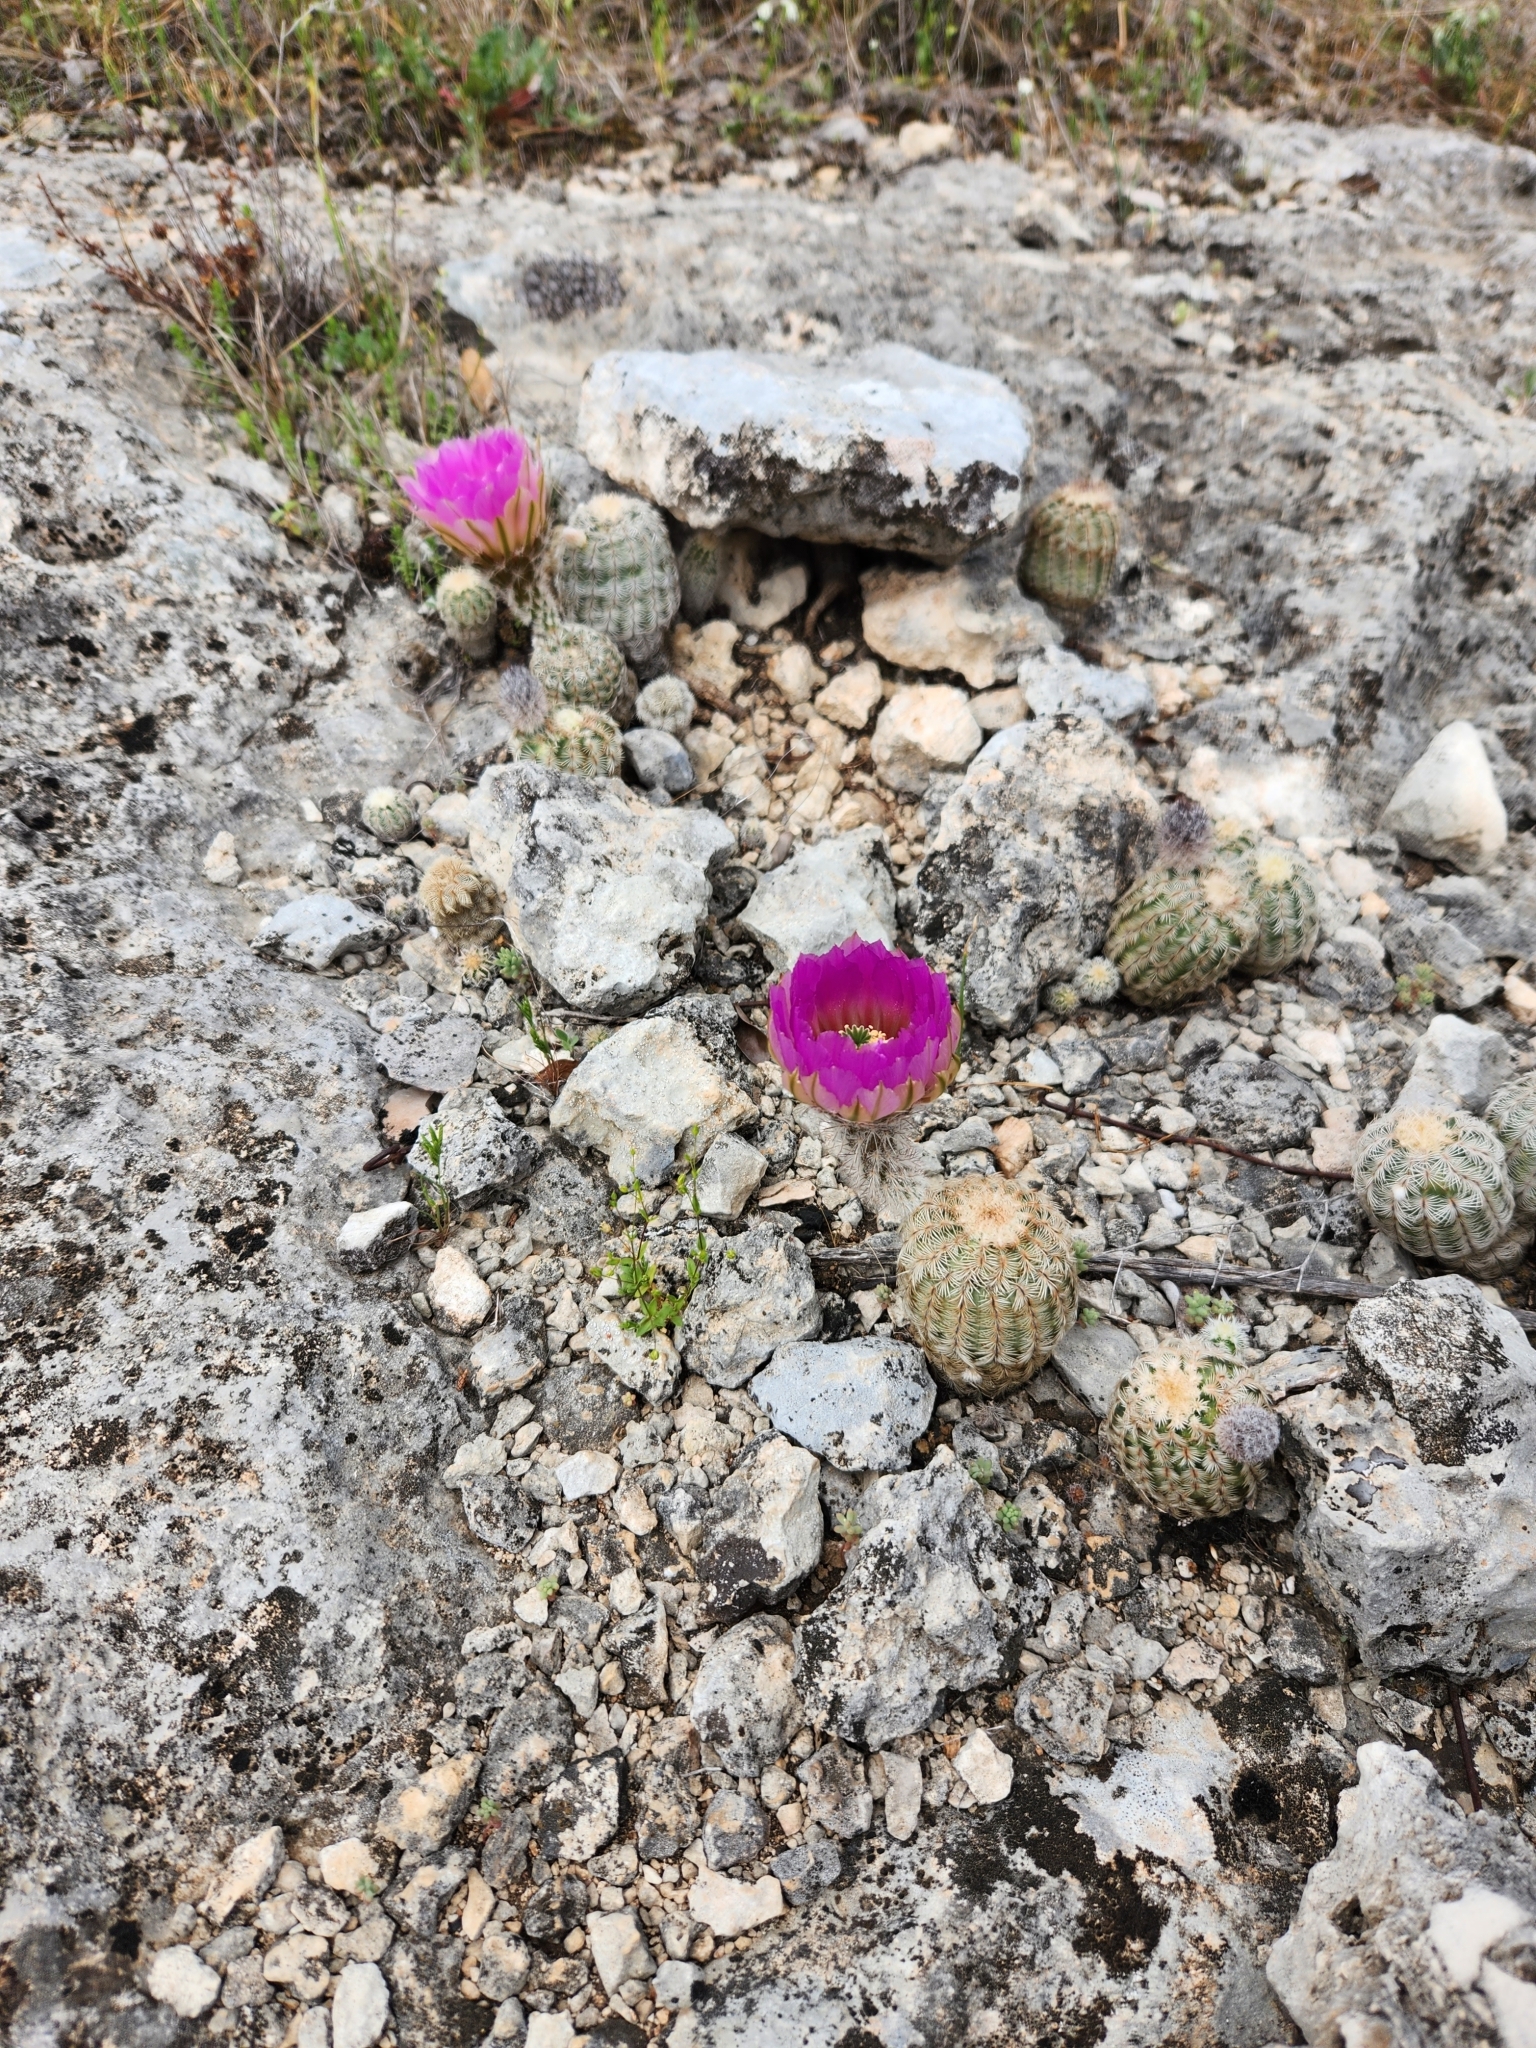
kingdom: Plantae
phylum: Tracheophyta
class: Magnoliopsida
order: Caryophyllales
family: Cactaceae
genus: Echinocereus
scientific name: Echinocereus reichenbachii
